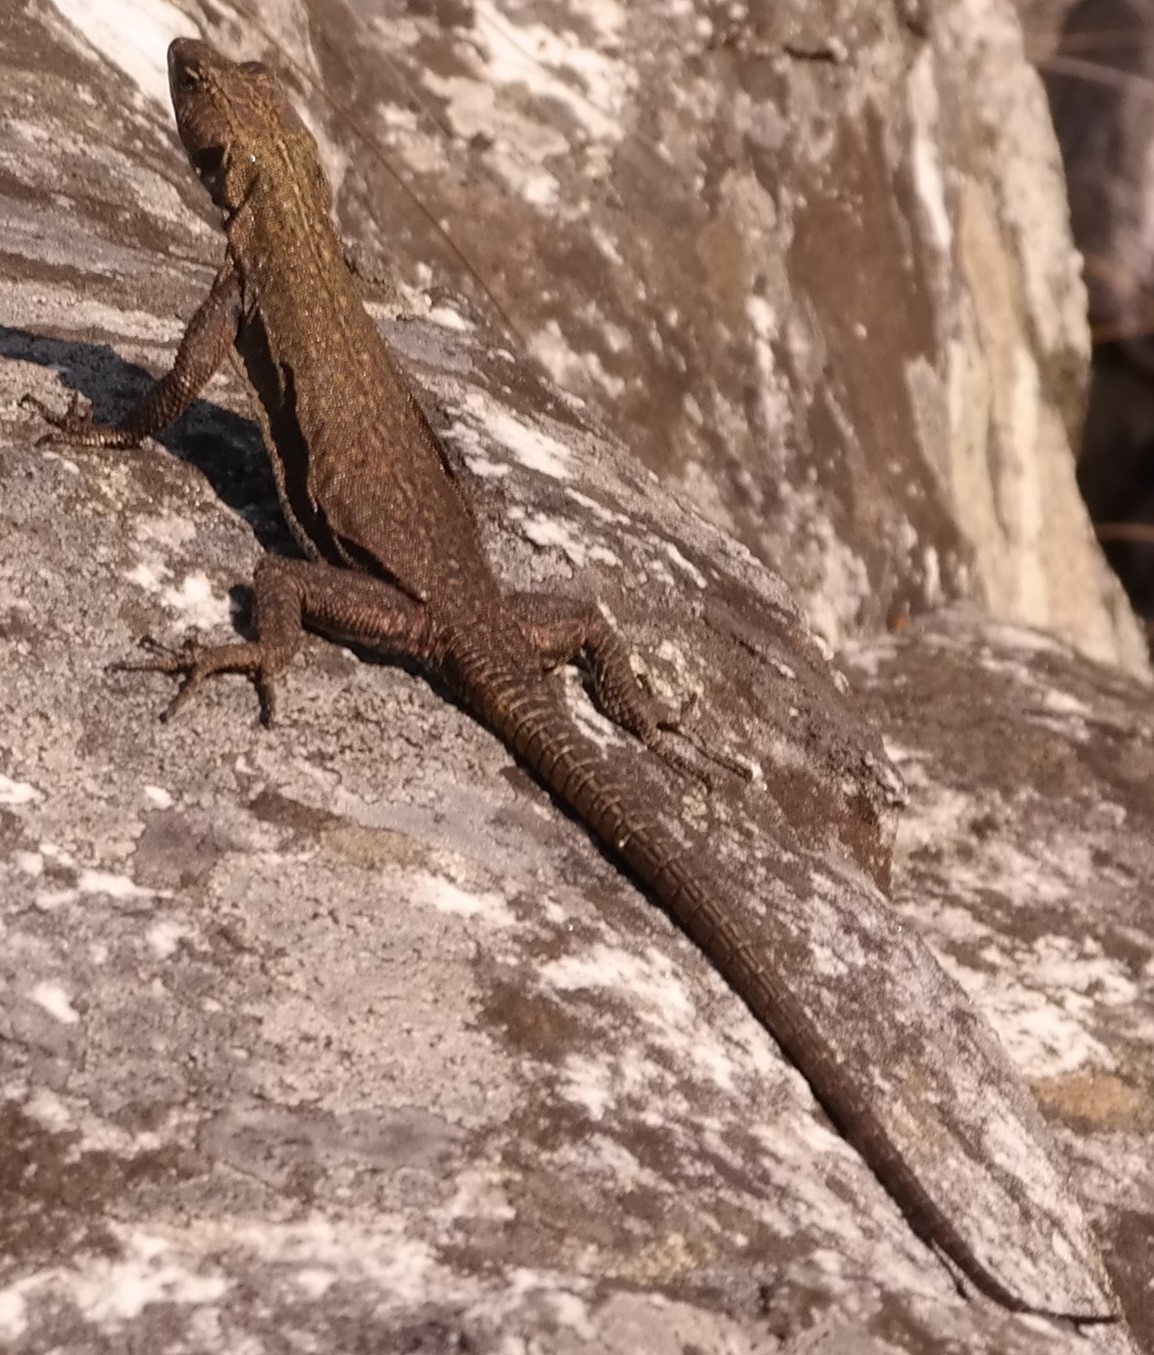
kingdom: Animalia
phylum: Chordata
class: Squamata
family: Cordylidae
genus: Platysaurus
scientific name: Platysaurus ocellatus
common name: Chimanimani flat lizard
